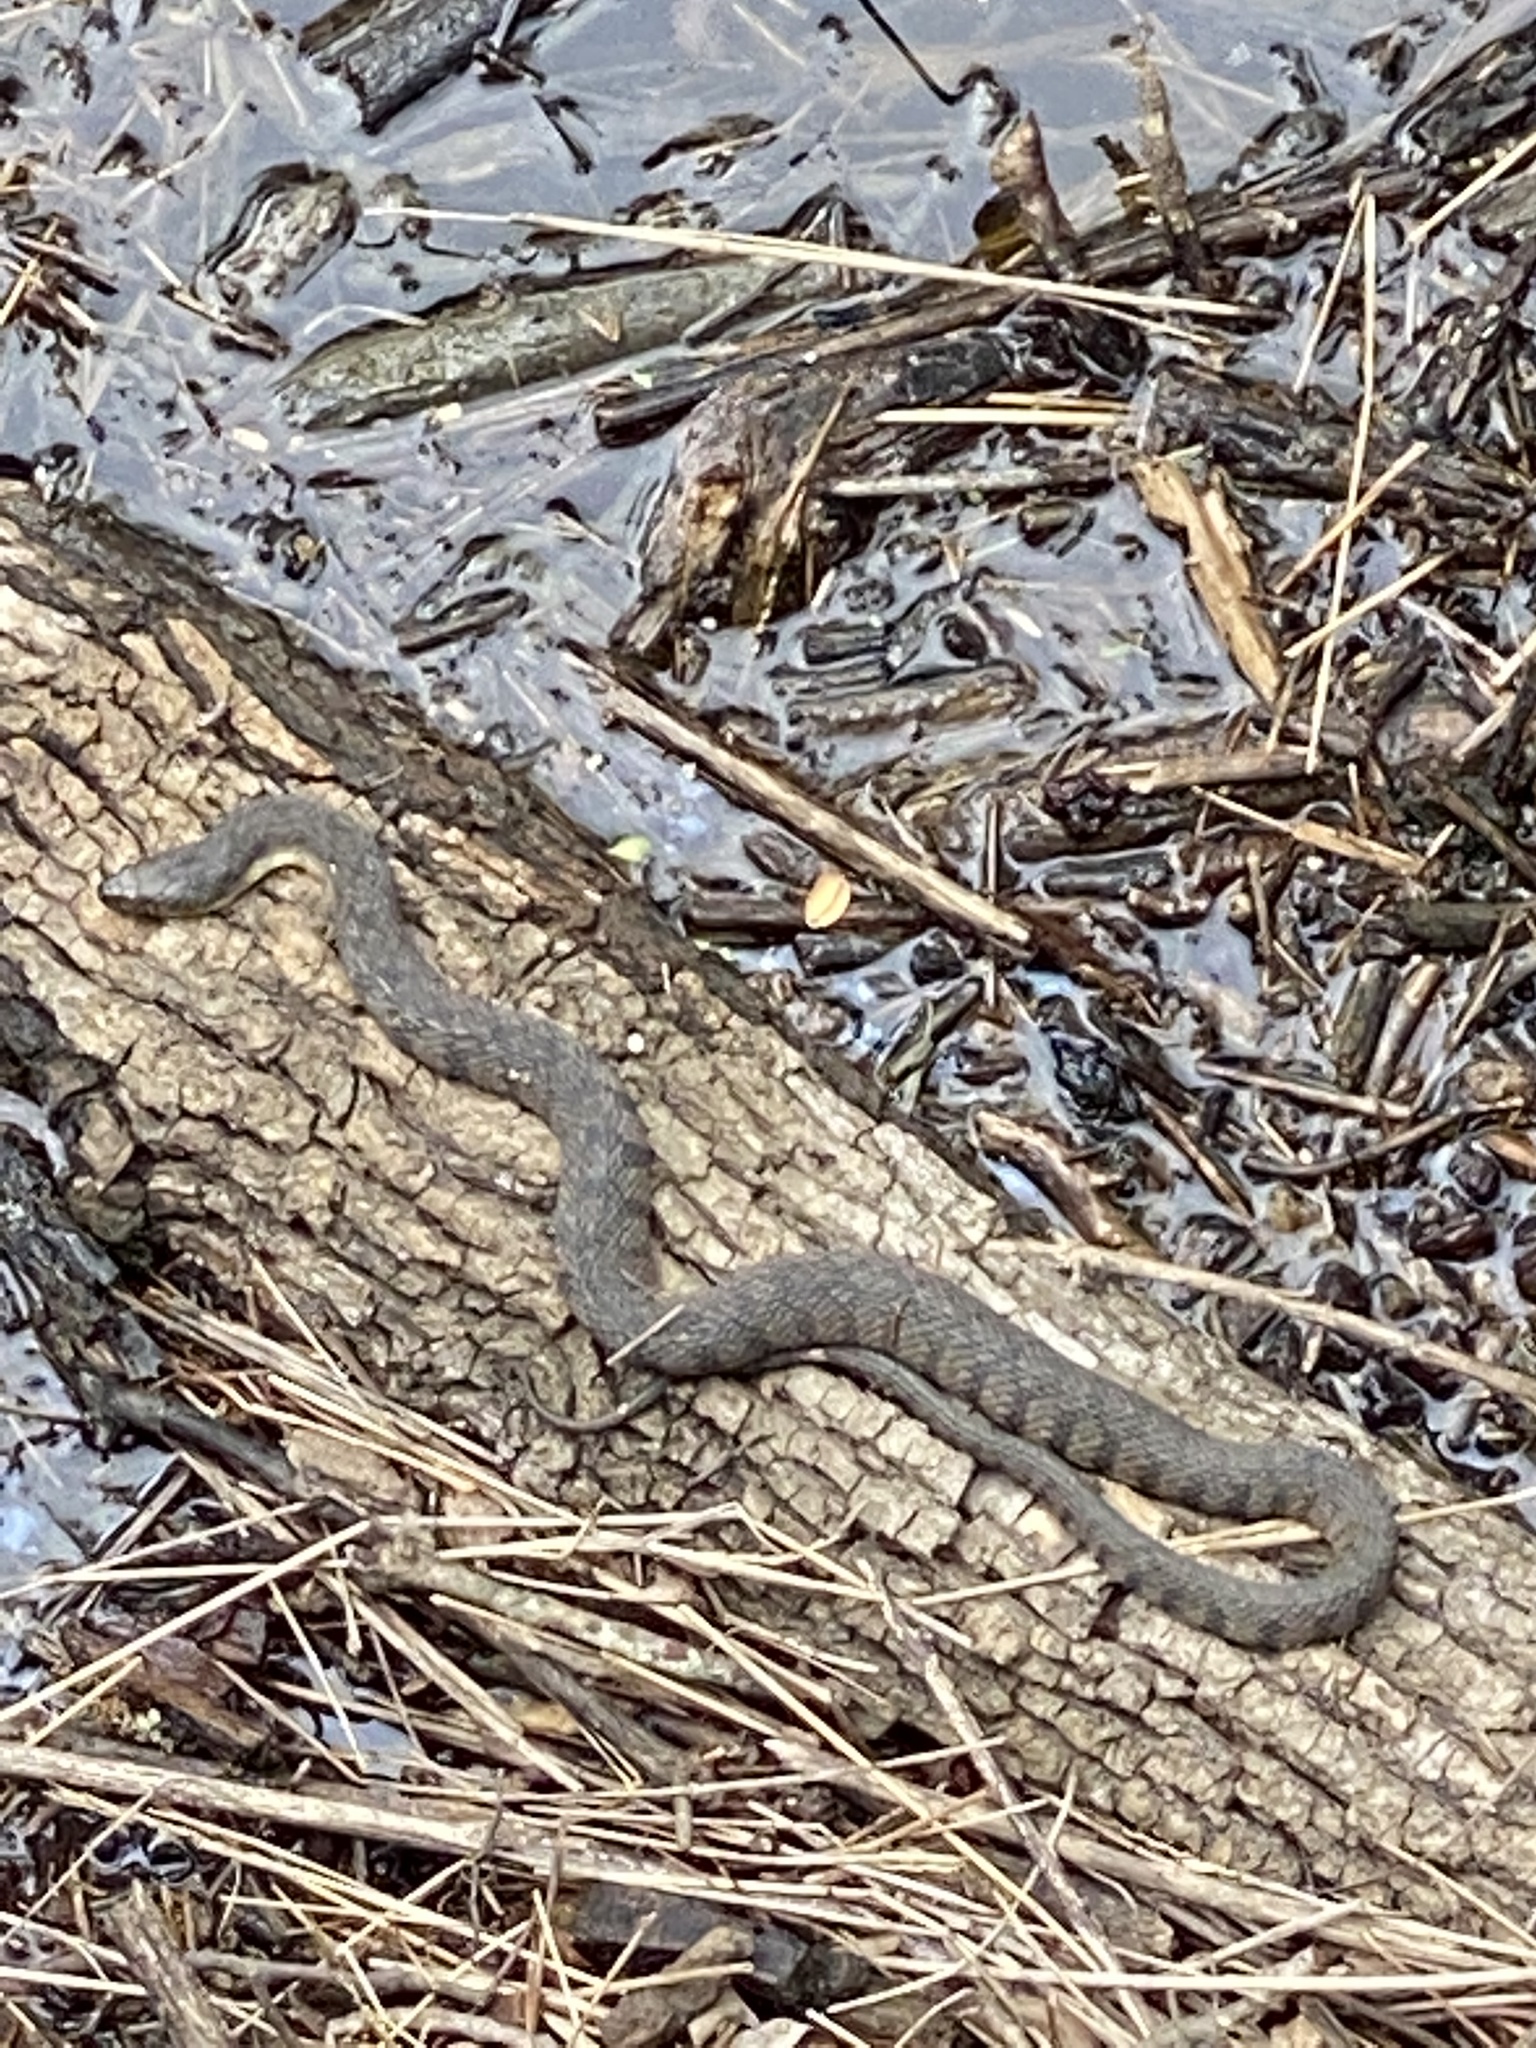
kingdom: Animalia
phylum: Chordata
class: Squamata
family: Colubridae
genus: Nerodia
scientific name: Nerodia rhombifer
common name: Diamondback water snake
